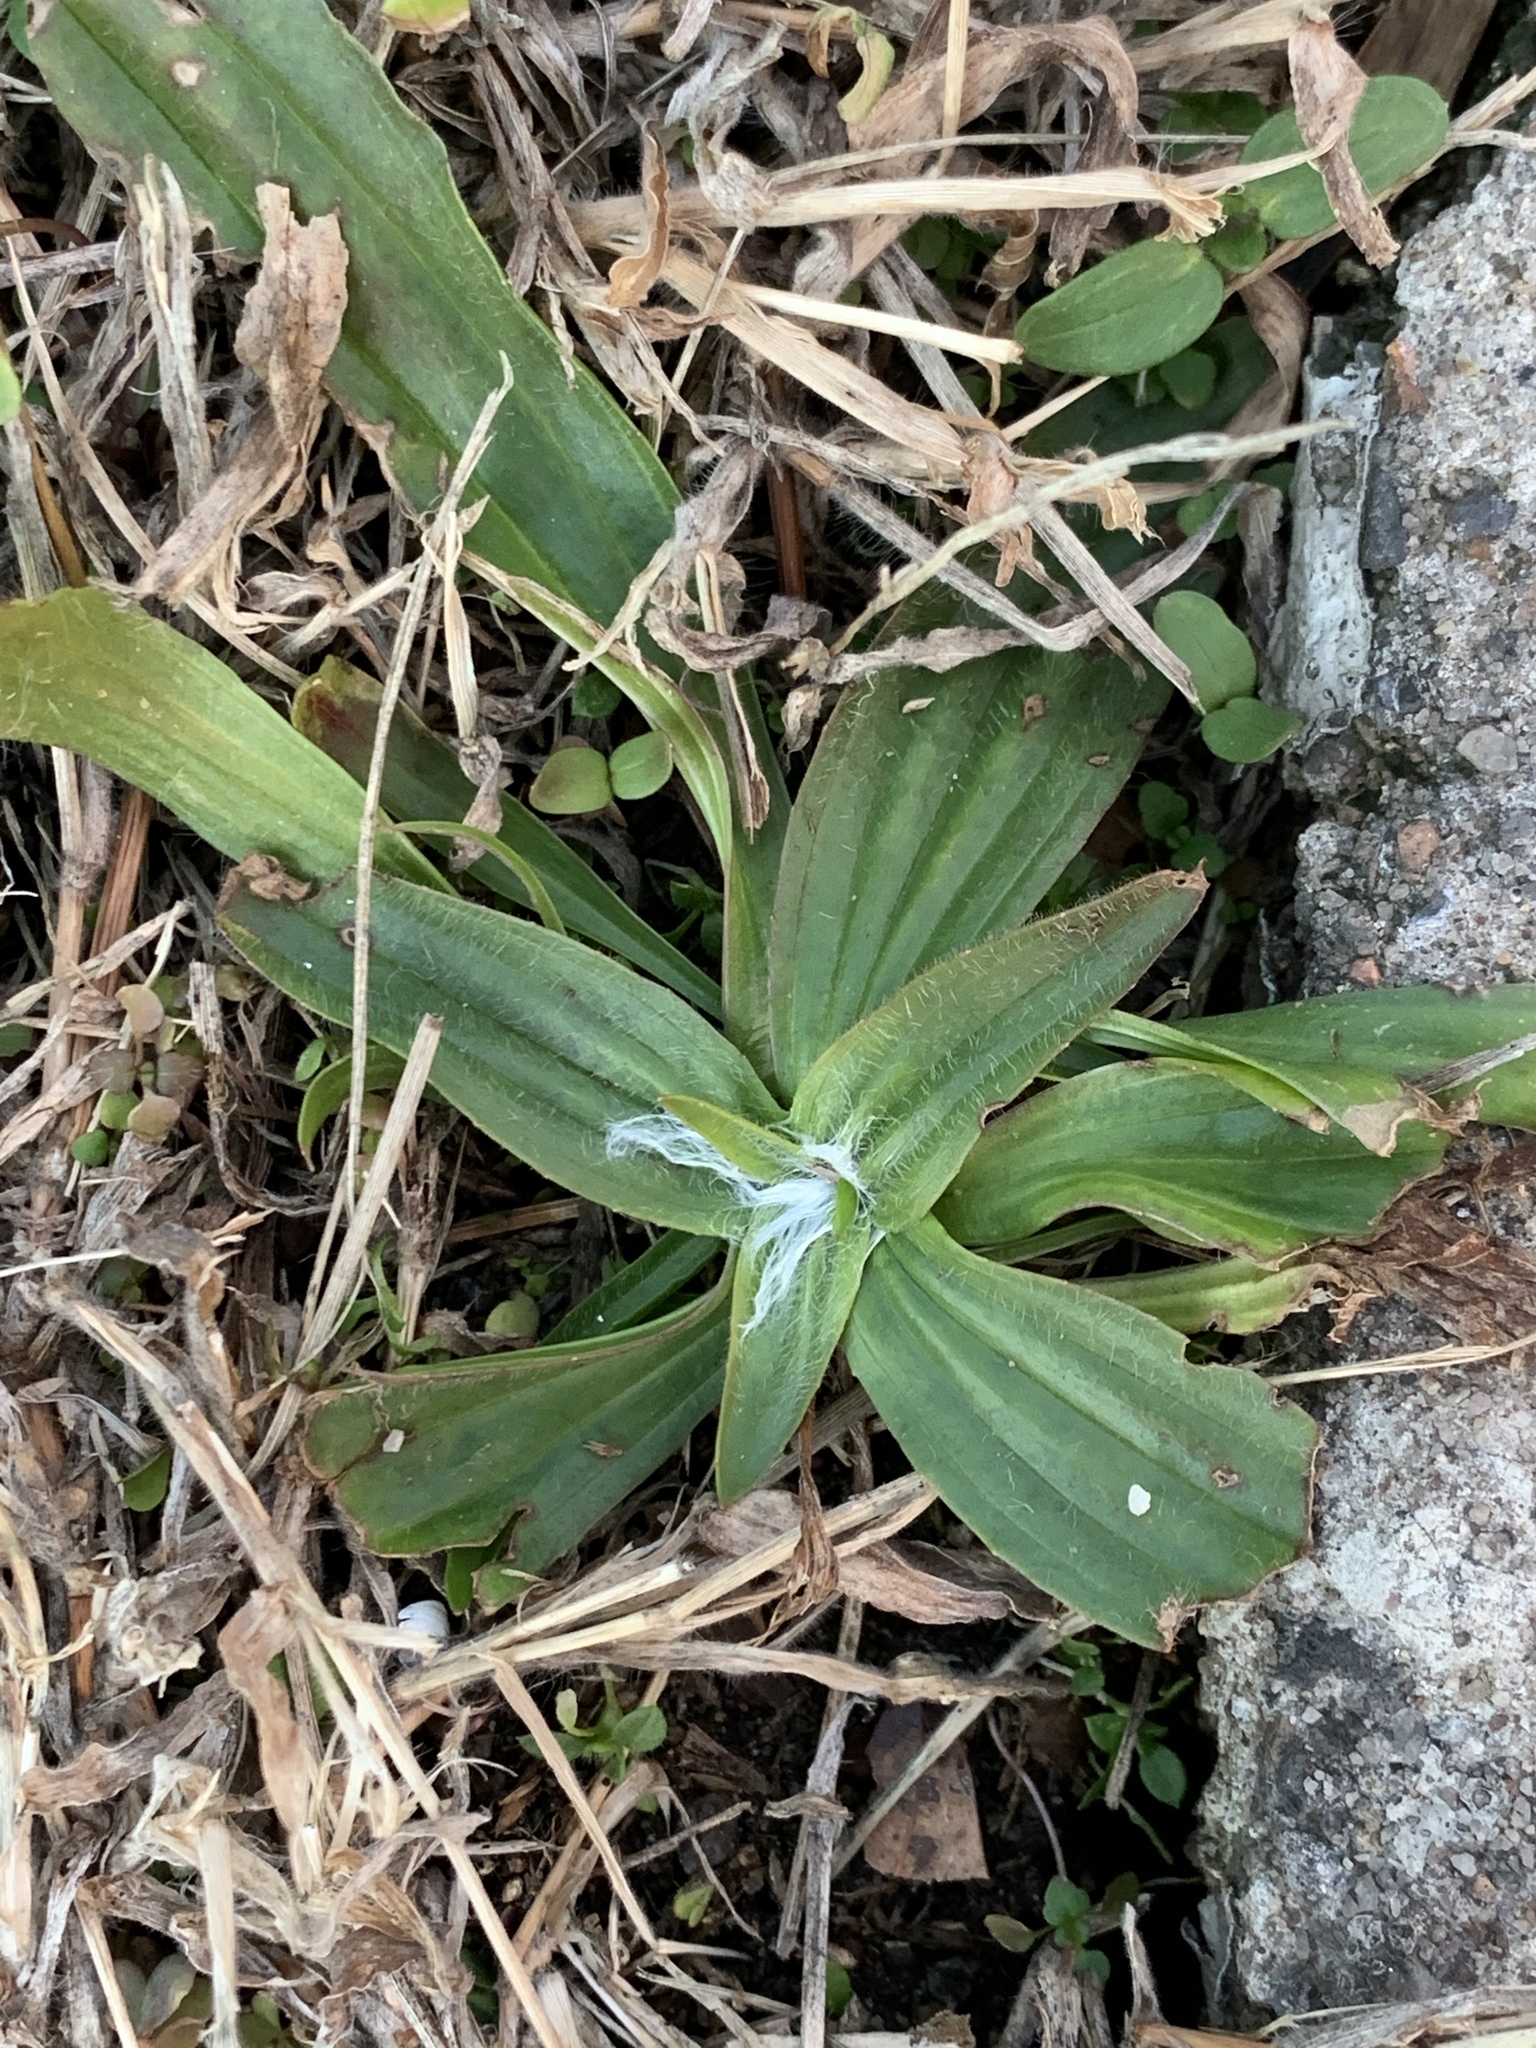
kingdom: Plantae
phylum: Tracheophyta
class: Magnoliopsida
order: Lamiales
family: Plantaginaceae
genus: Plantago
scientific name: Plantago lanceolata
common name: Ribwort plantain
